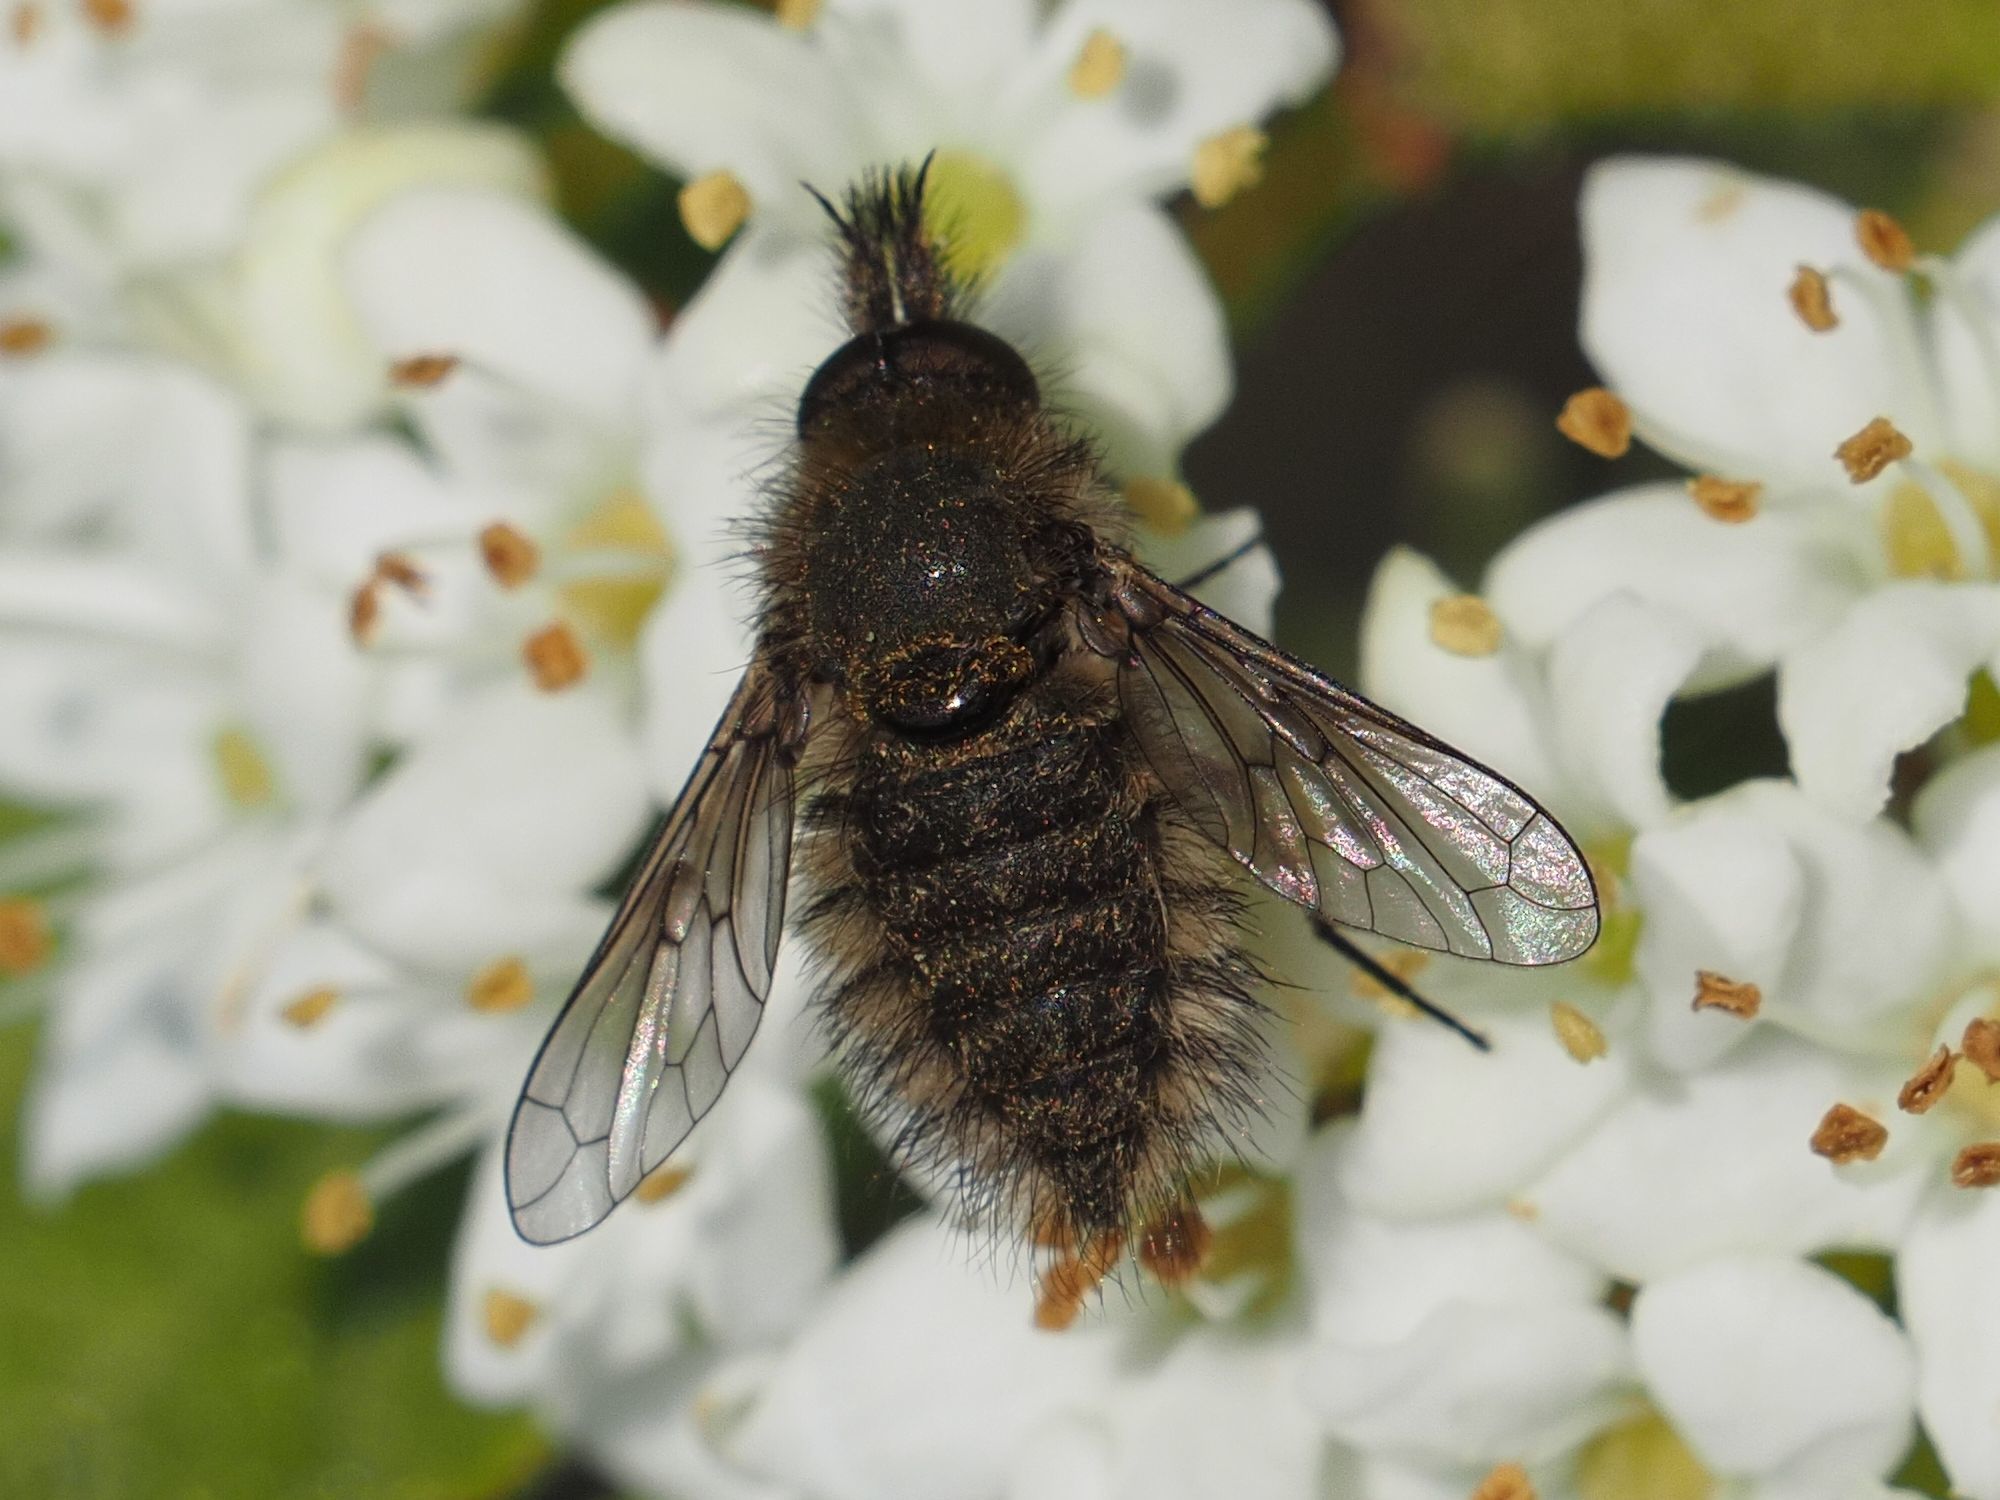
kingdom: Animalia
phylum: Arthropoda
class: Insecta
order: Diptera
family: Bombyliidae
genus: Conophorus
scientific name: Conophorus virescens
